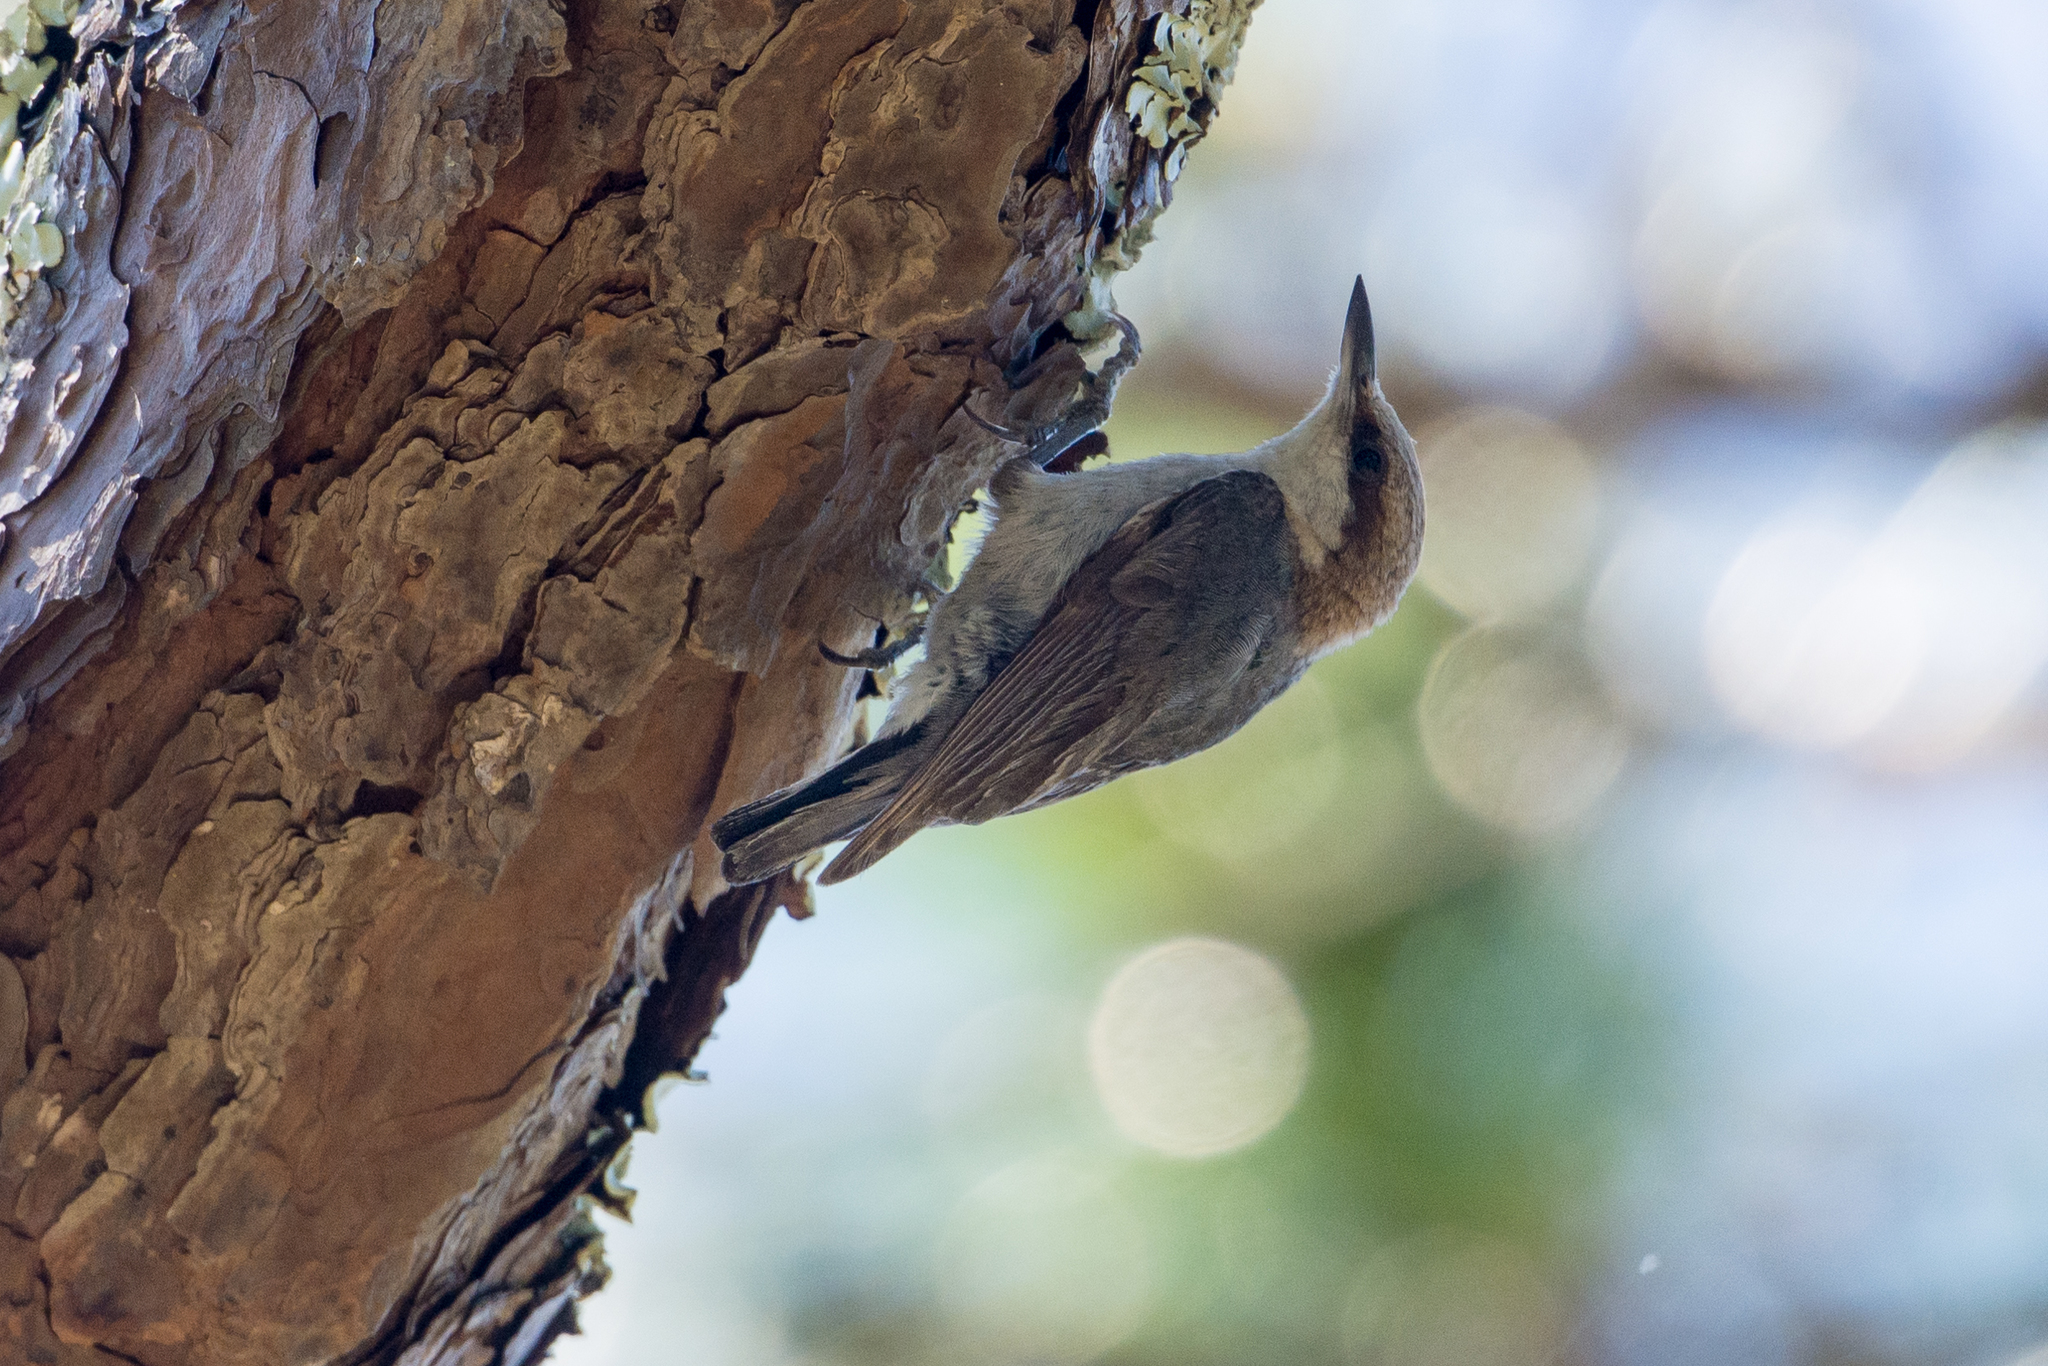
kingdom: Animalia
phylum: Chordata
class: Aves
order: Passeriformes
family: Sittidae
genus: Sitta
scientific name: Sitta pusilla
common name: Brown-headed nuthatch
